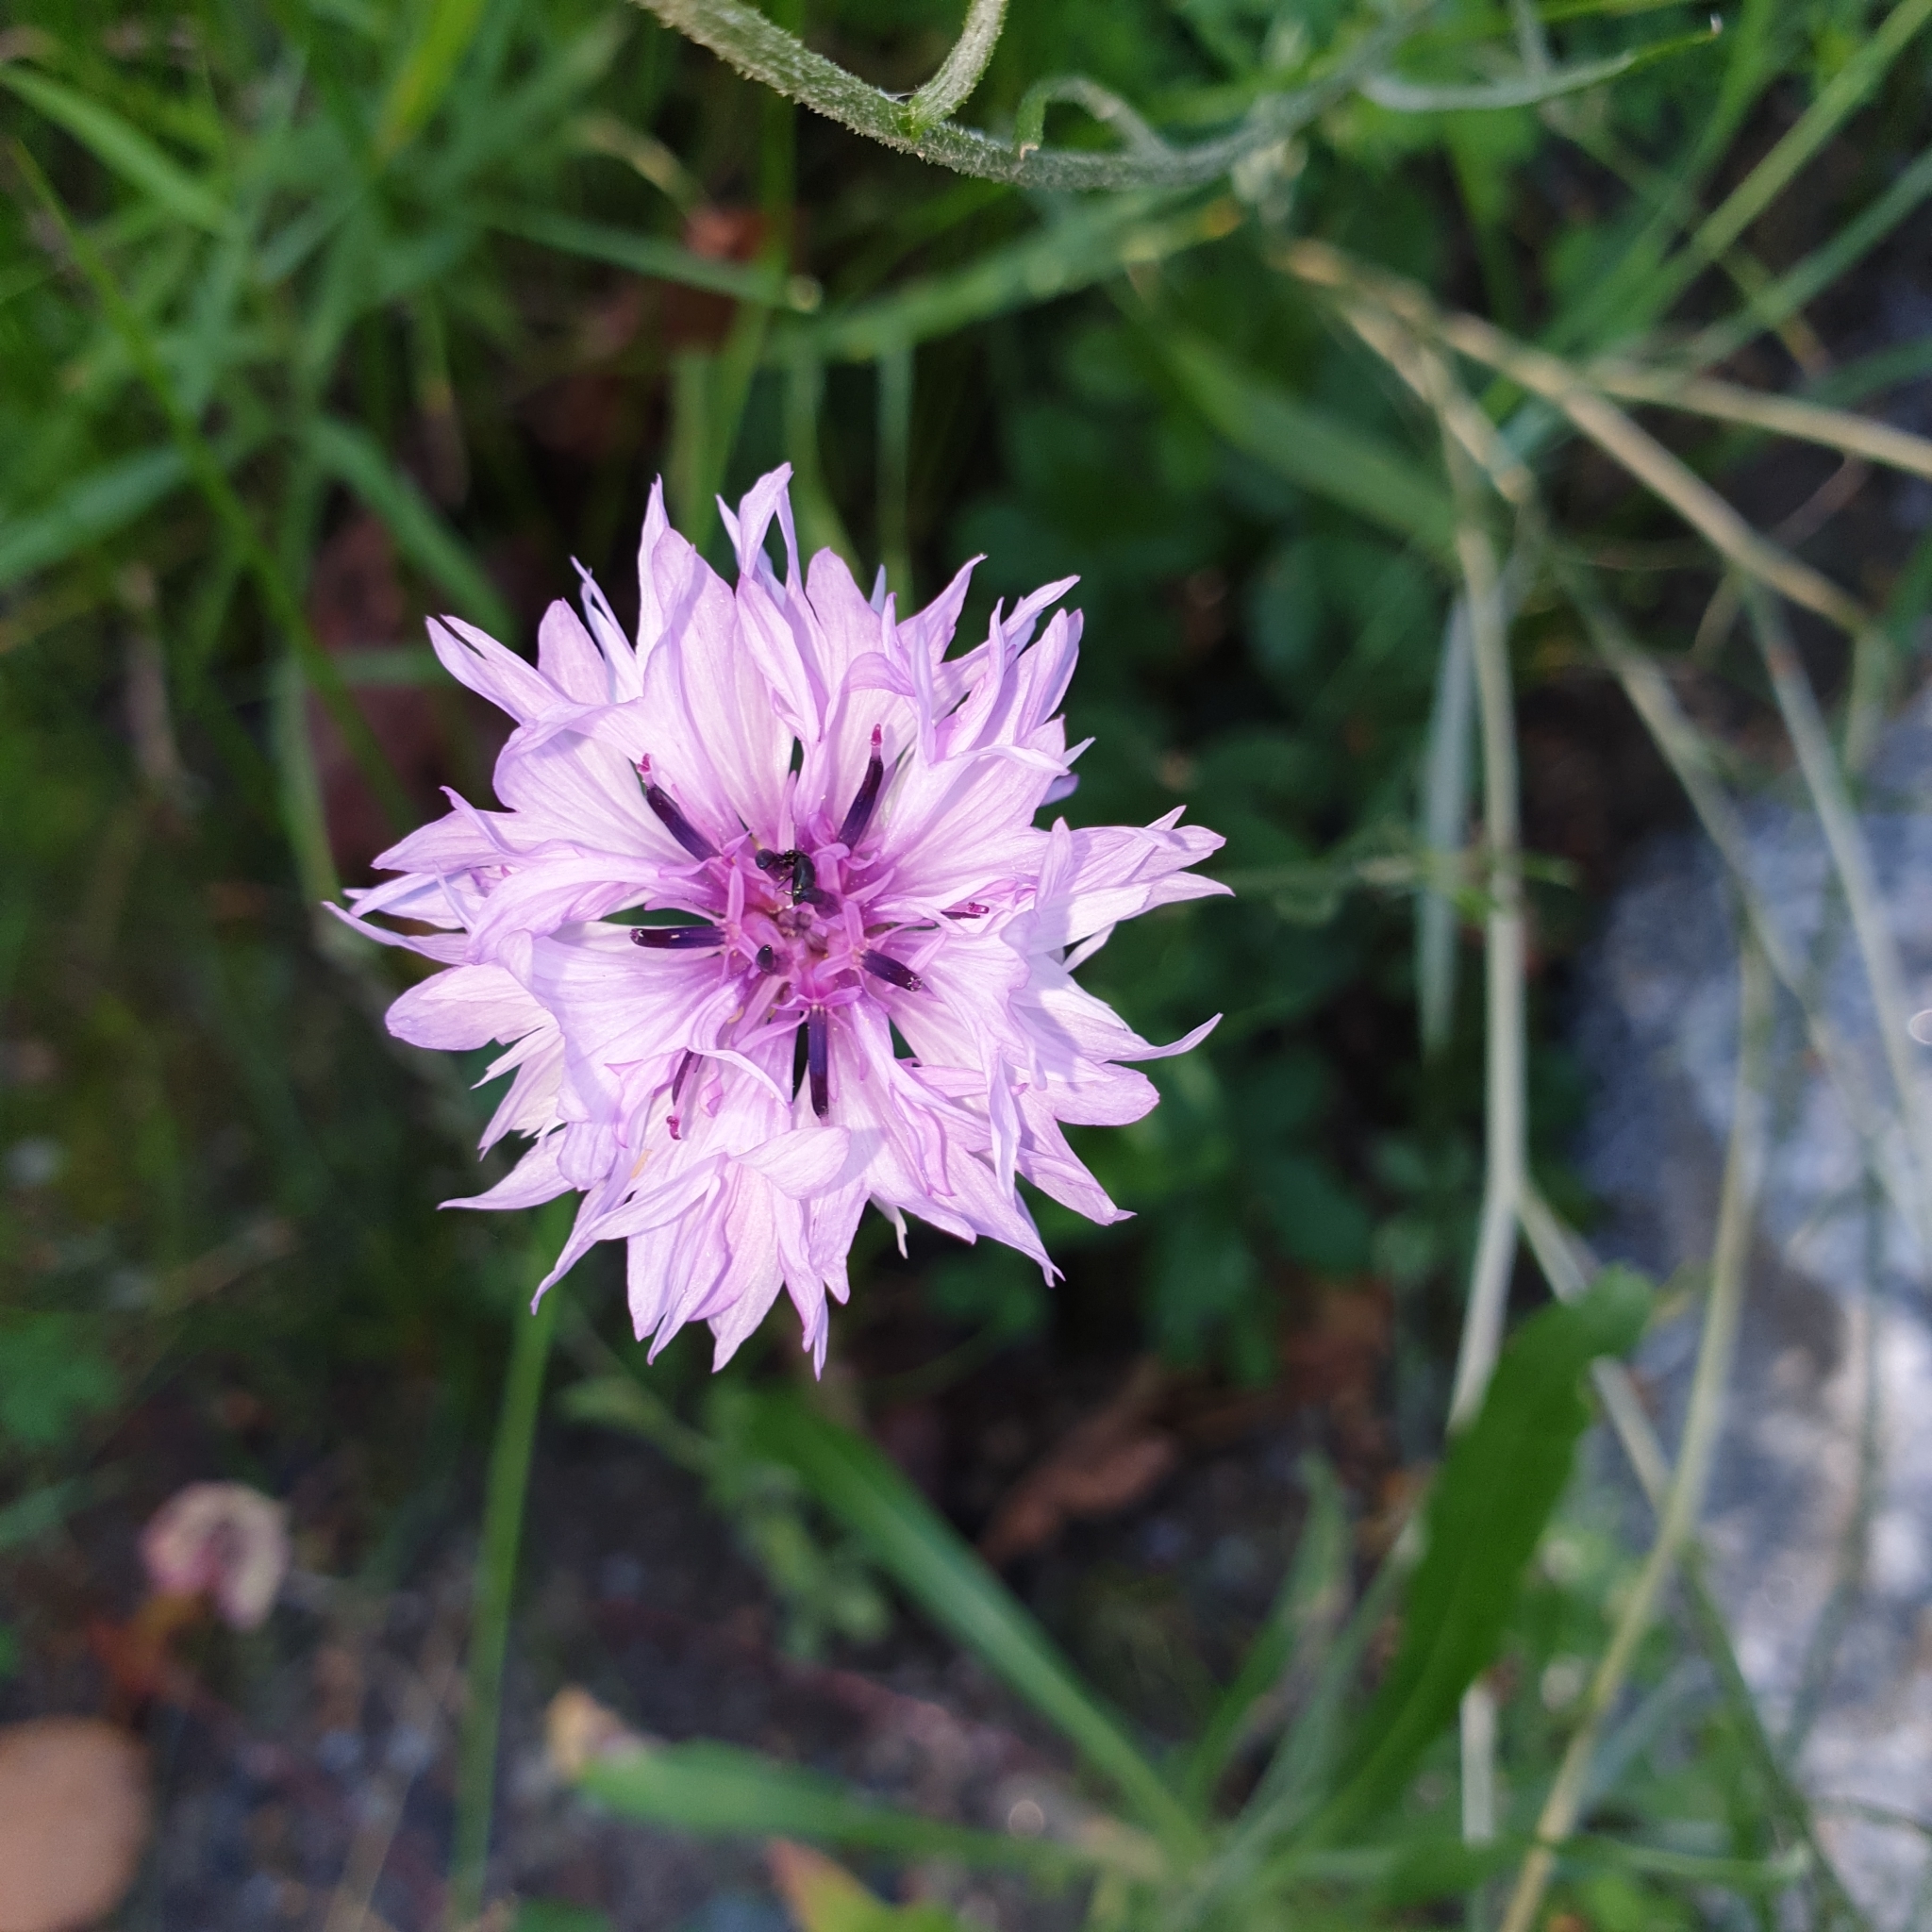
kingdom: Plantae
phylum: Tracheophyta
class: Magnoliopsida
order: Asterales
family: Asteraceae
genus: Centaurea
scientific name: Centaurea cyanus
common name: Cornflower
